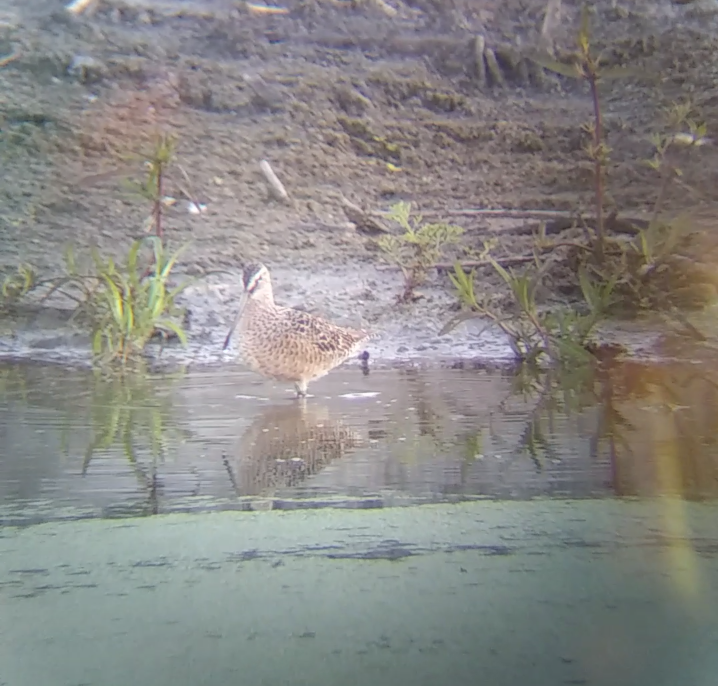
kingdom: Animalia
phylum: Chordata
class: Aves
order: Charadriiformes
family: Scolopacidae
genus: Limnodromus
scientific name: Limnodromus scolopaceus
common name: Long-billed dowitcher
